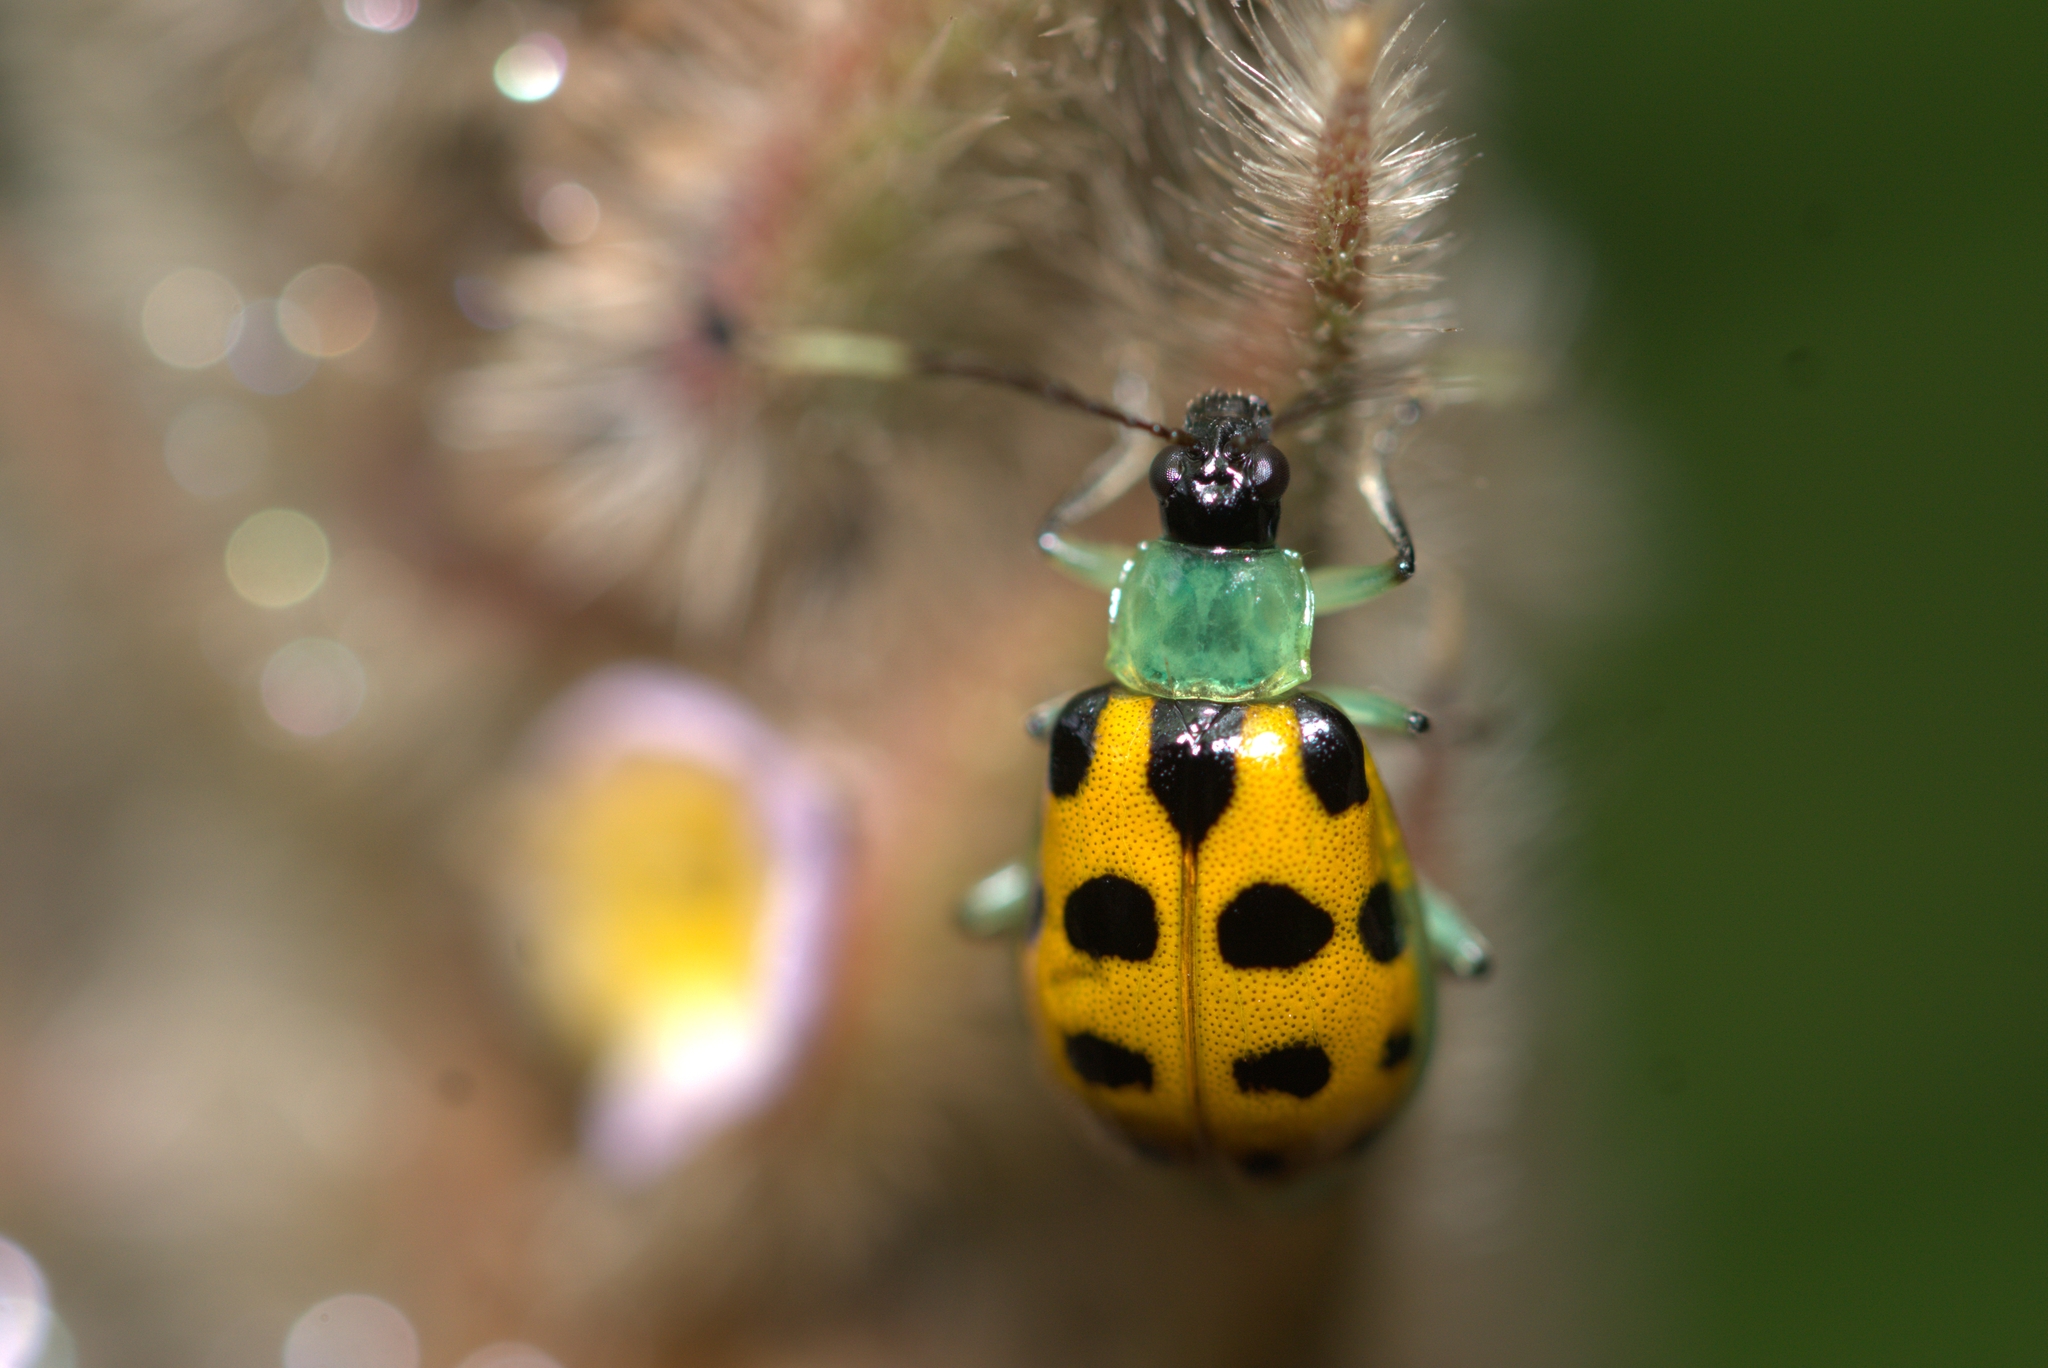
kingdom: Animalia
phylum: Arthropoda
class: Insecta
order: Coleoptera
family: Chrysomelidae
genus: Diabrotica
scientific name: Diabrotica limitata
